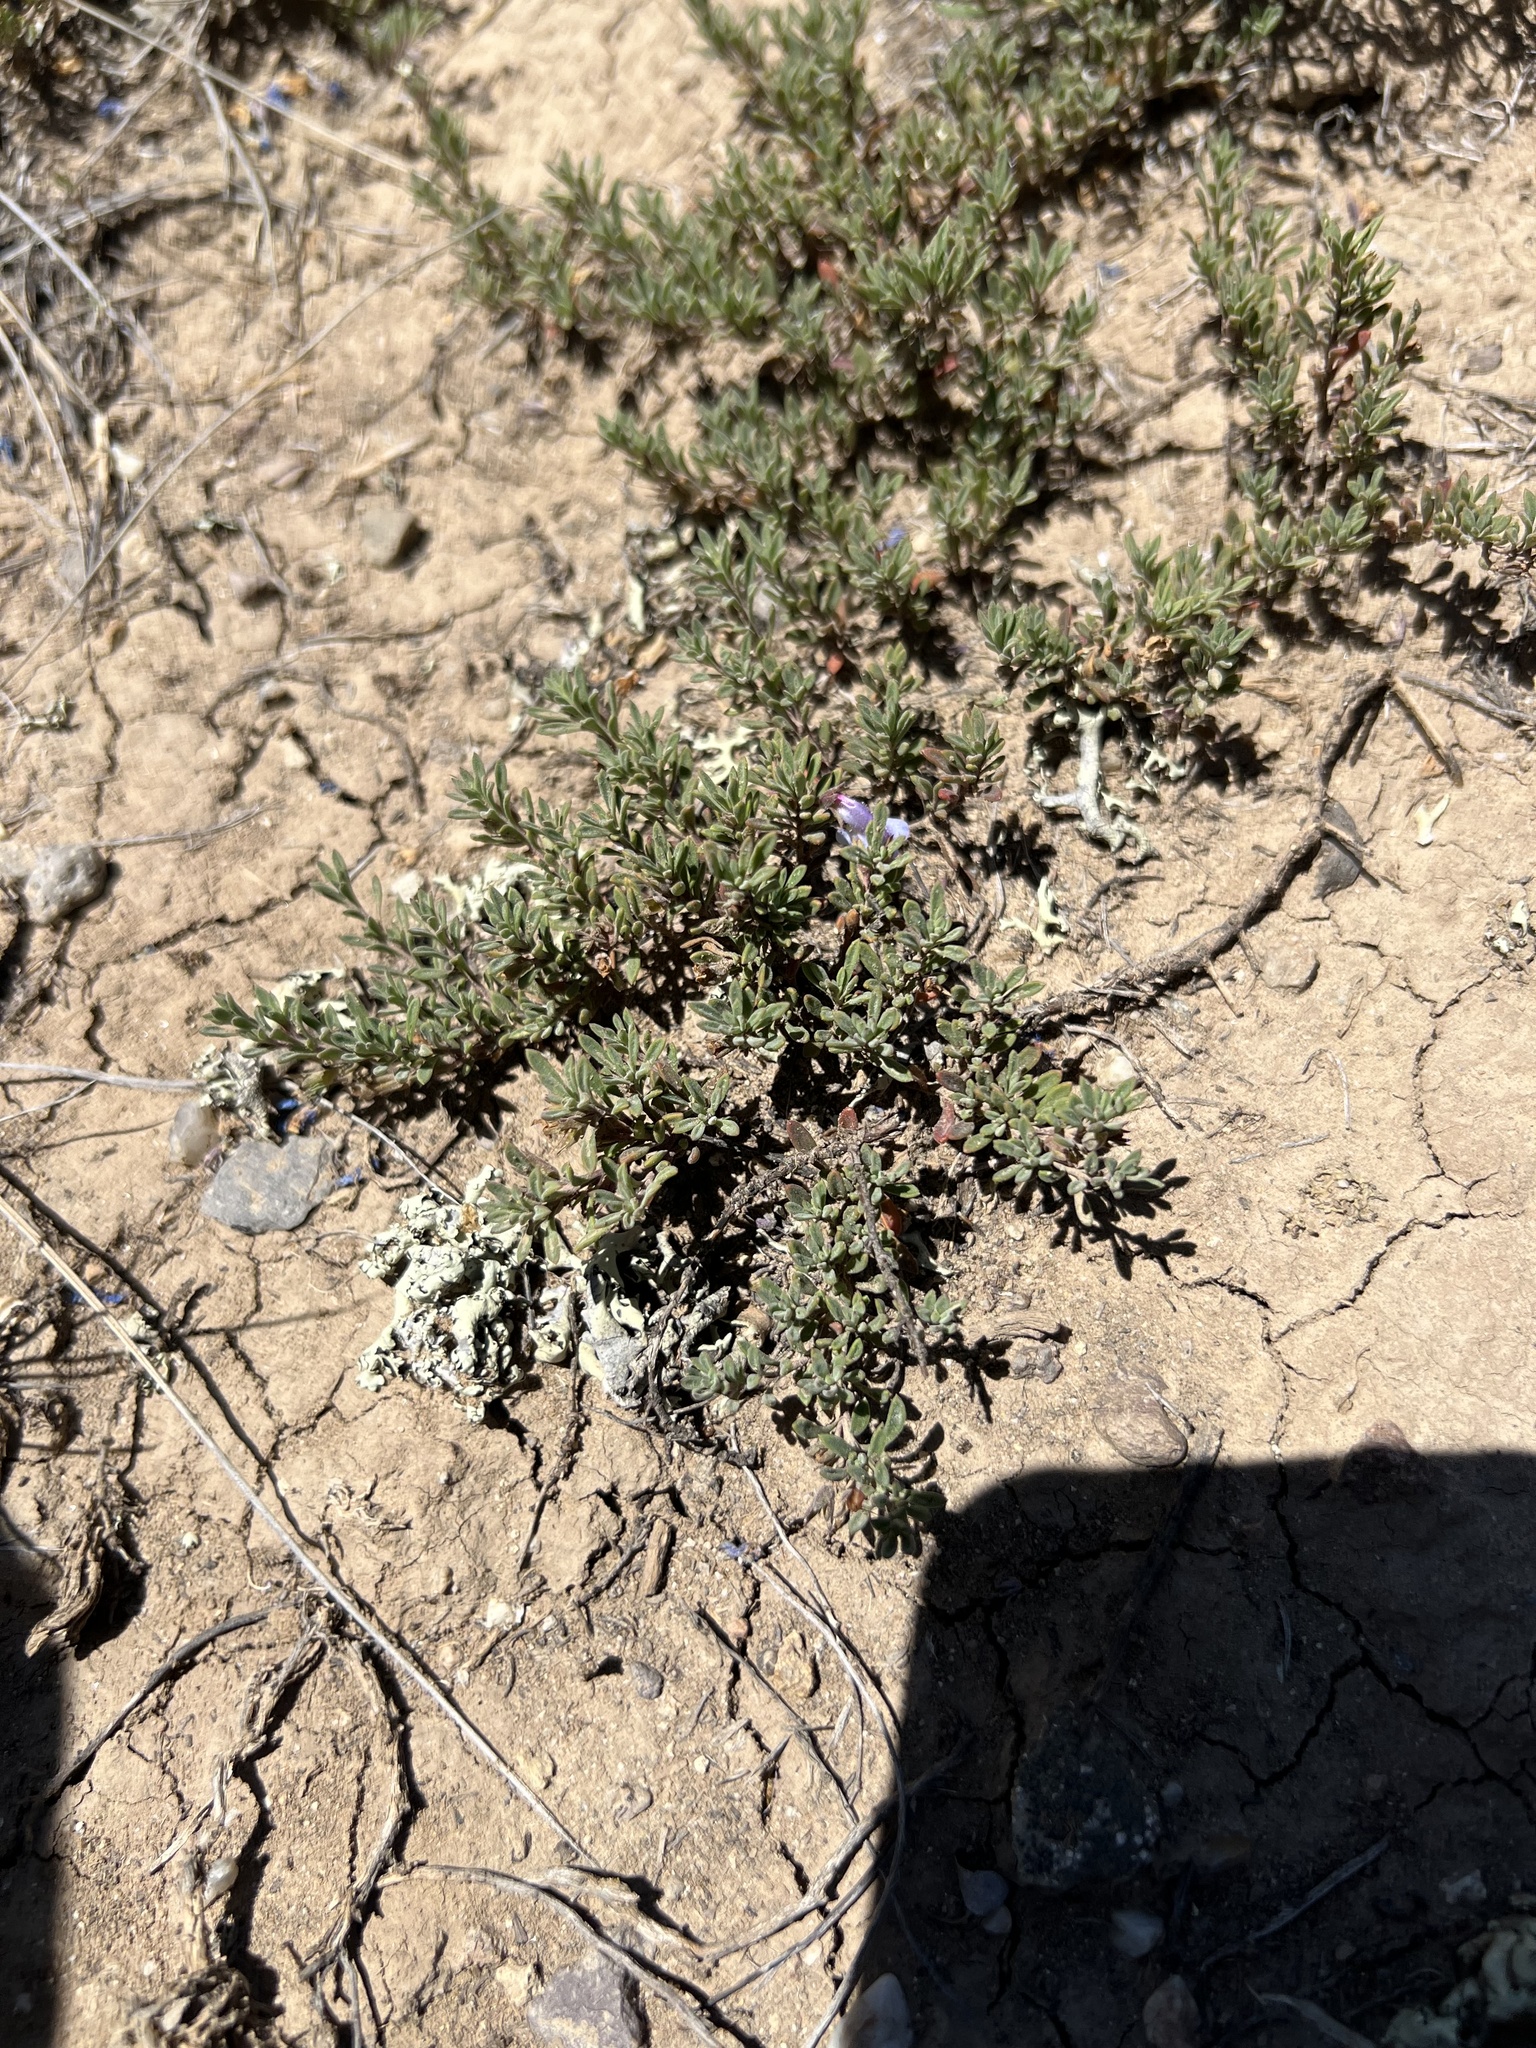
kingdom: Plantae
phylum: Tracheophyta
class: Magnoliopsida
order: Lamiales
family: Plantaginaceae
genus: Penstemon
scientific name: Penstemon caespitosus
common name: Mat penstemon
